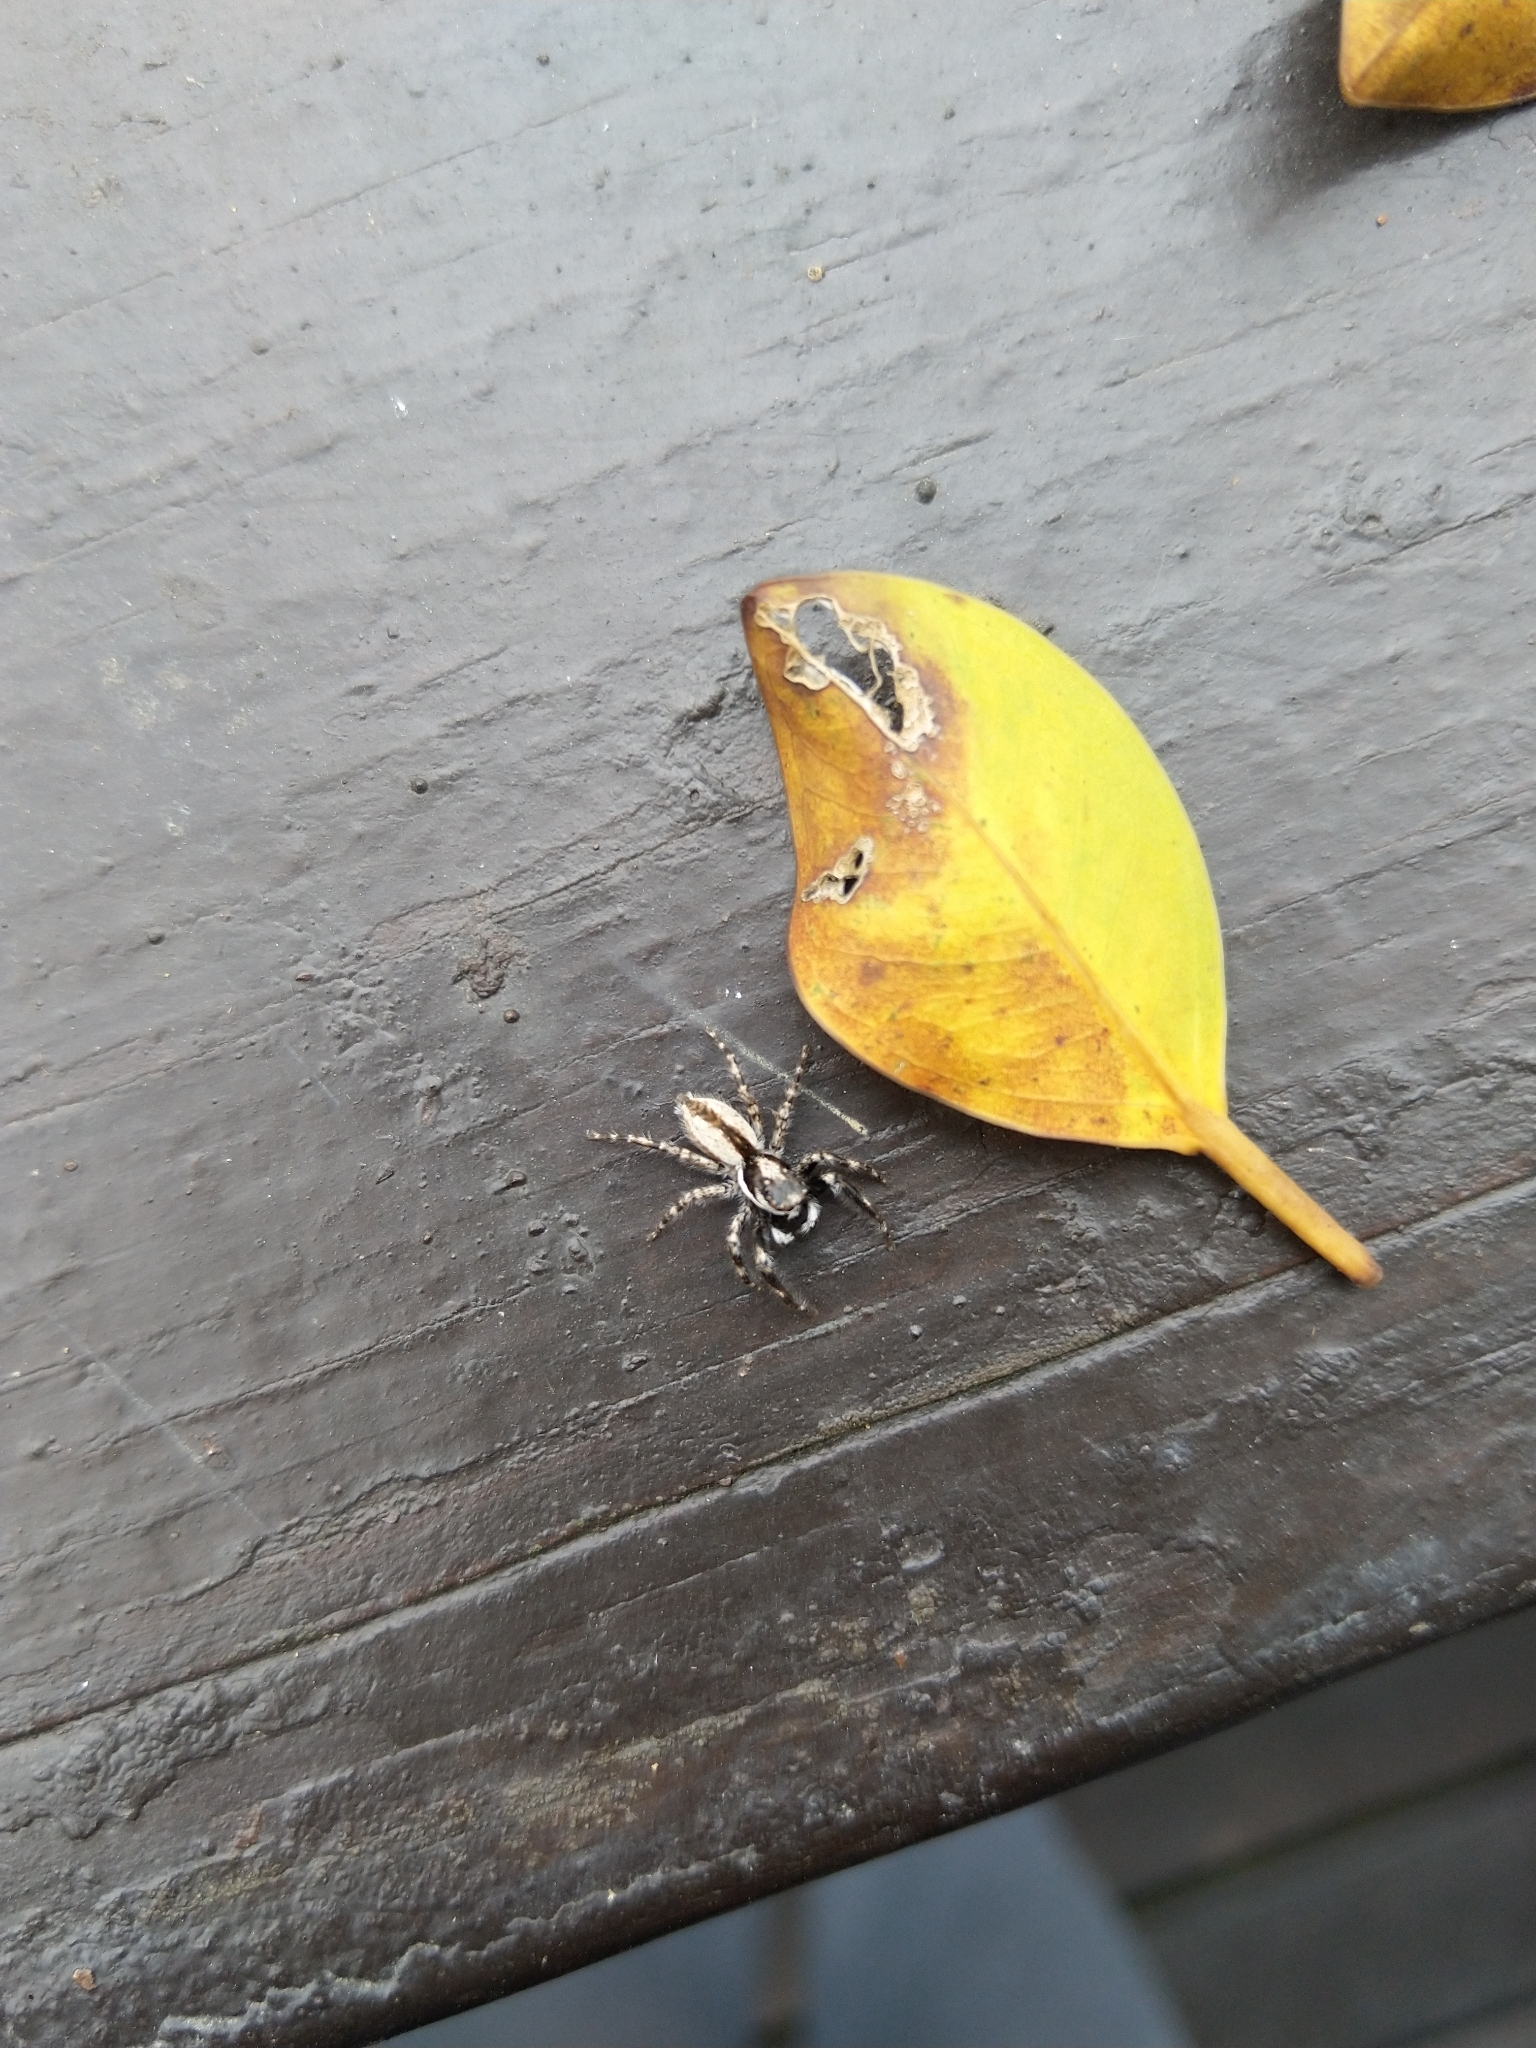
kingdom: Animalia
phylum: Arthropoda
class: Arachnida
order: Araneae
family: Salticidae
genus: Menemerus
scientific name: Menemerus bivittatus
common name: Gray wall jumper
